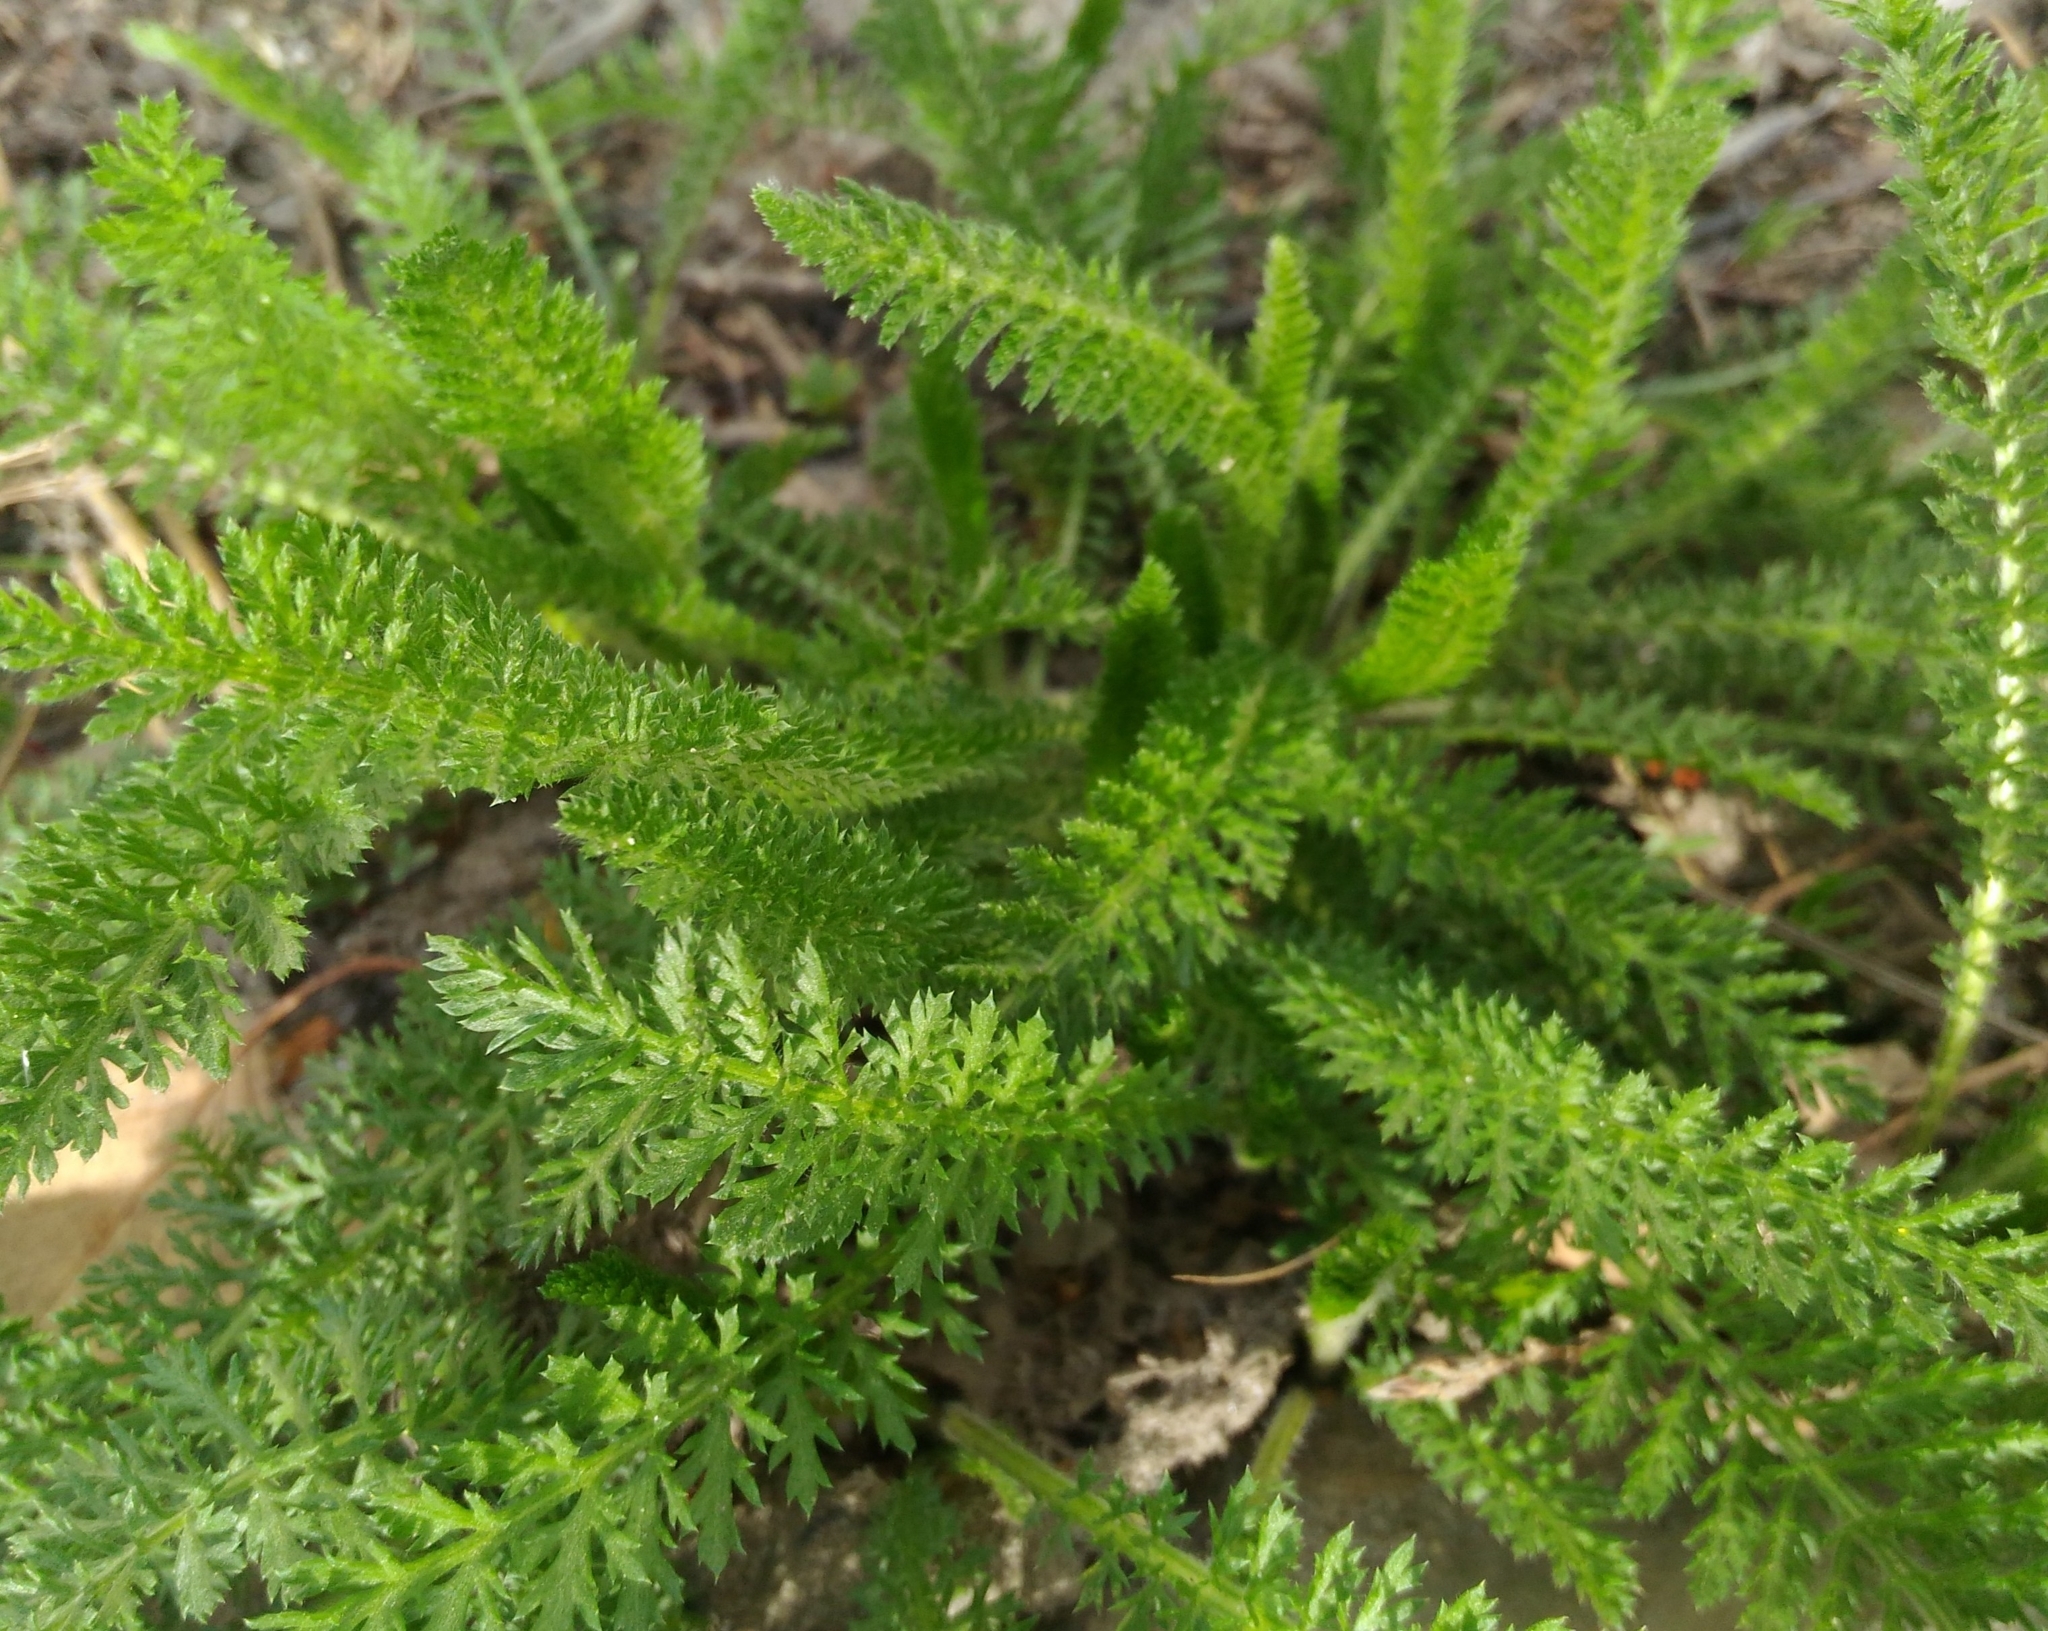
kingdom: Plantae
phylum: Tracheophyta
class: Magnoliopsida
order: Asterales
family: Asteraceae
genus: Achillea
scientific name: Achillea millefolium
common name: Yarrow
